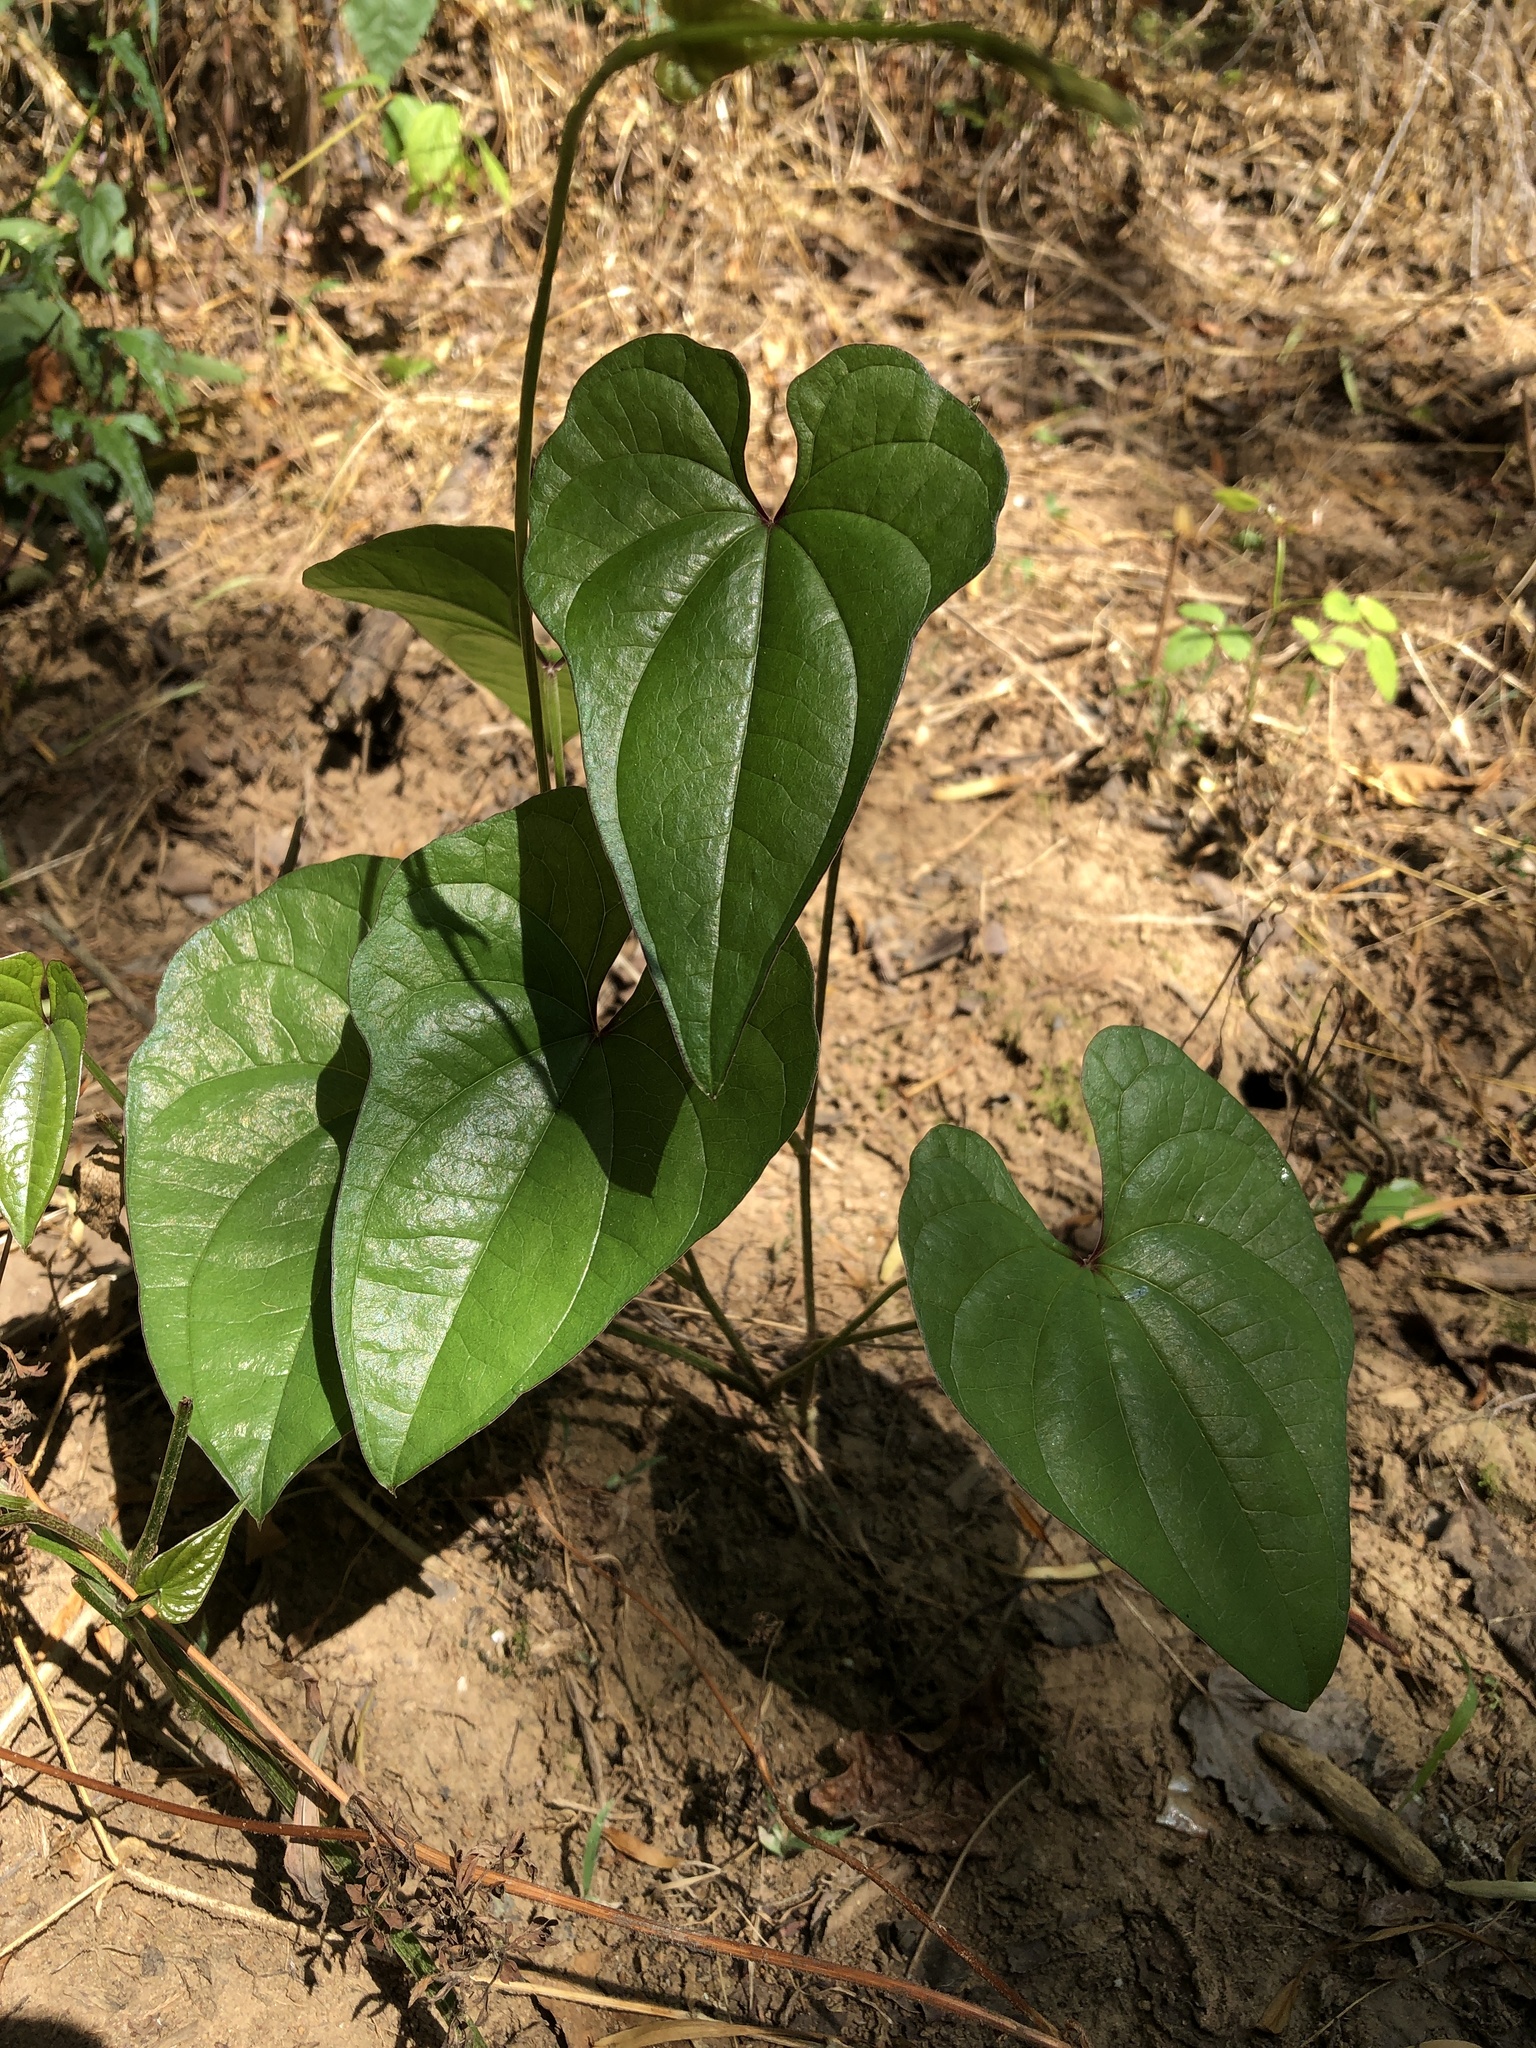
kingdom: Plantae
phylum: Tracheophyta
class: Liliopsida
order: Dioscoreales
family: Dioscoreaceae
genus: Dioscorea
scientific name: Dioscorea polystachya
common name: Chinese yam
